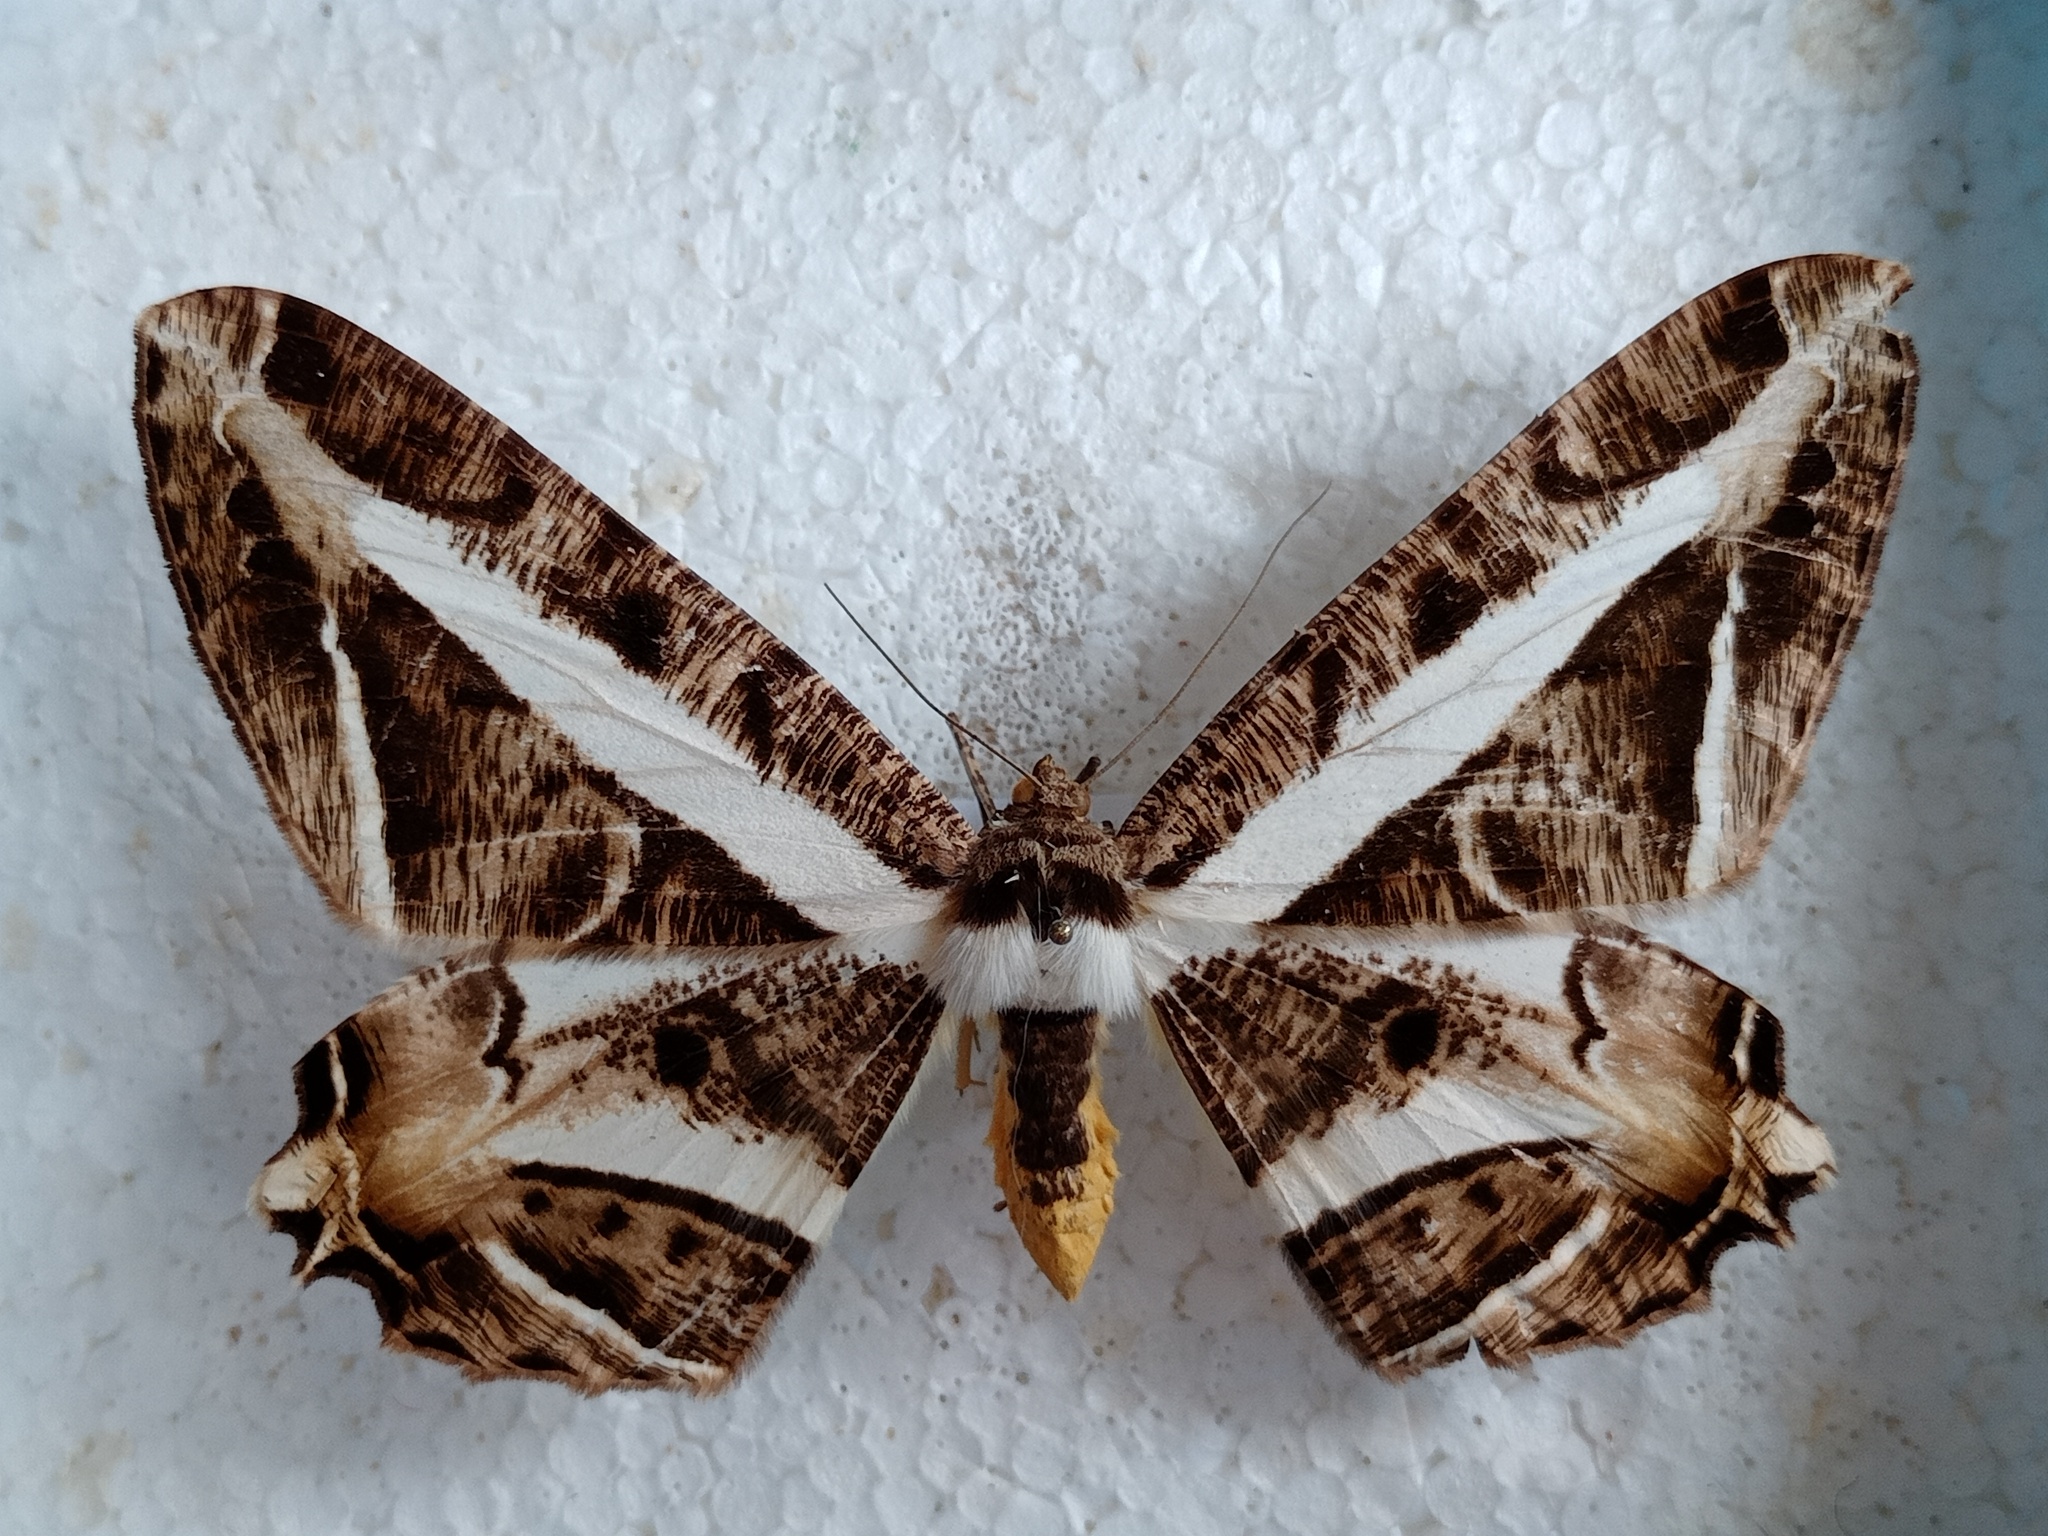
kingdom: Animalia
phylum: Arthropoda
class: Insecta
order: Lepidoptera
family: Geometridae
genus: Chorodna
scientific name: Chorodna fulgurita
